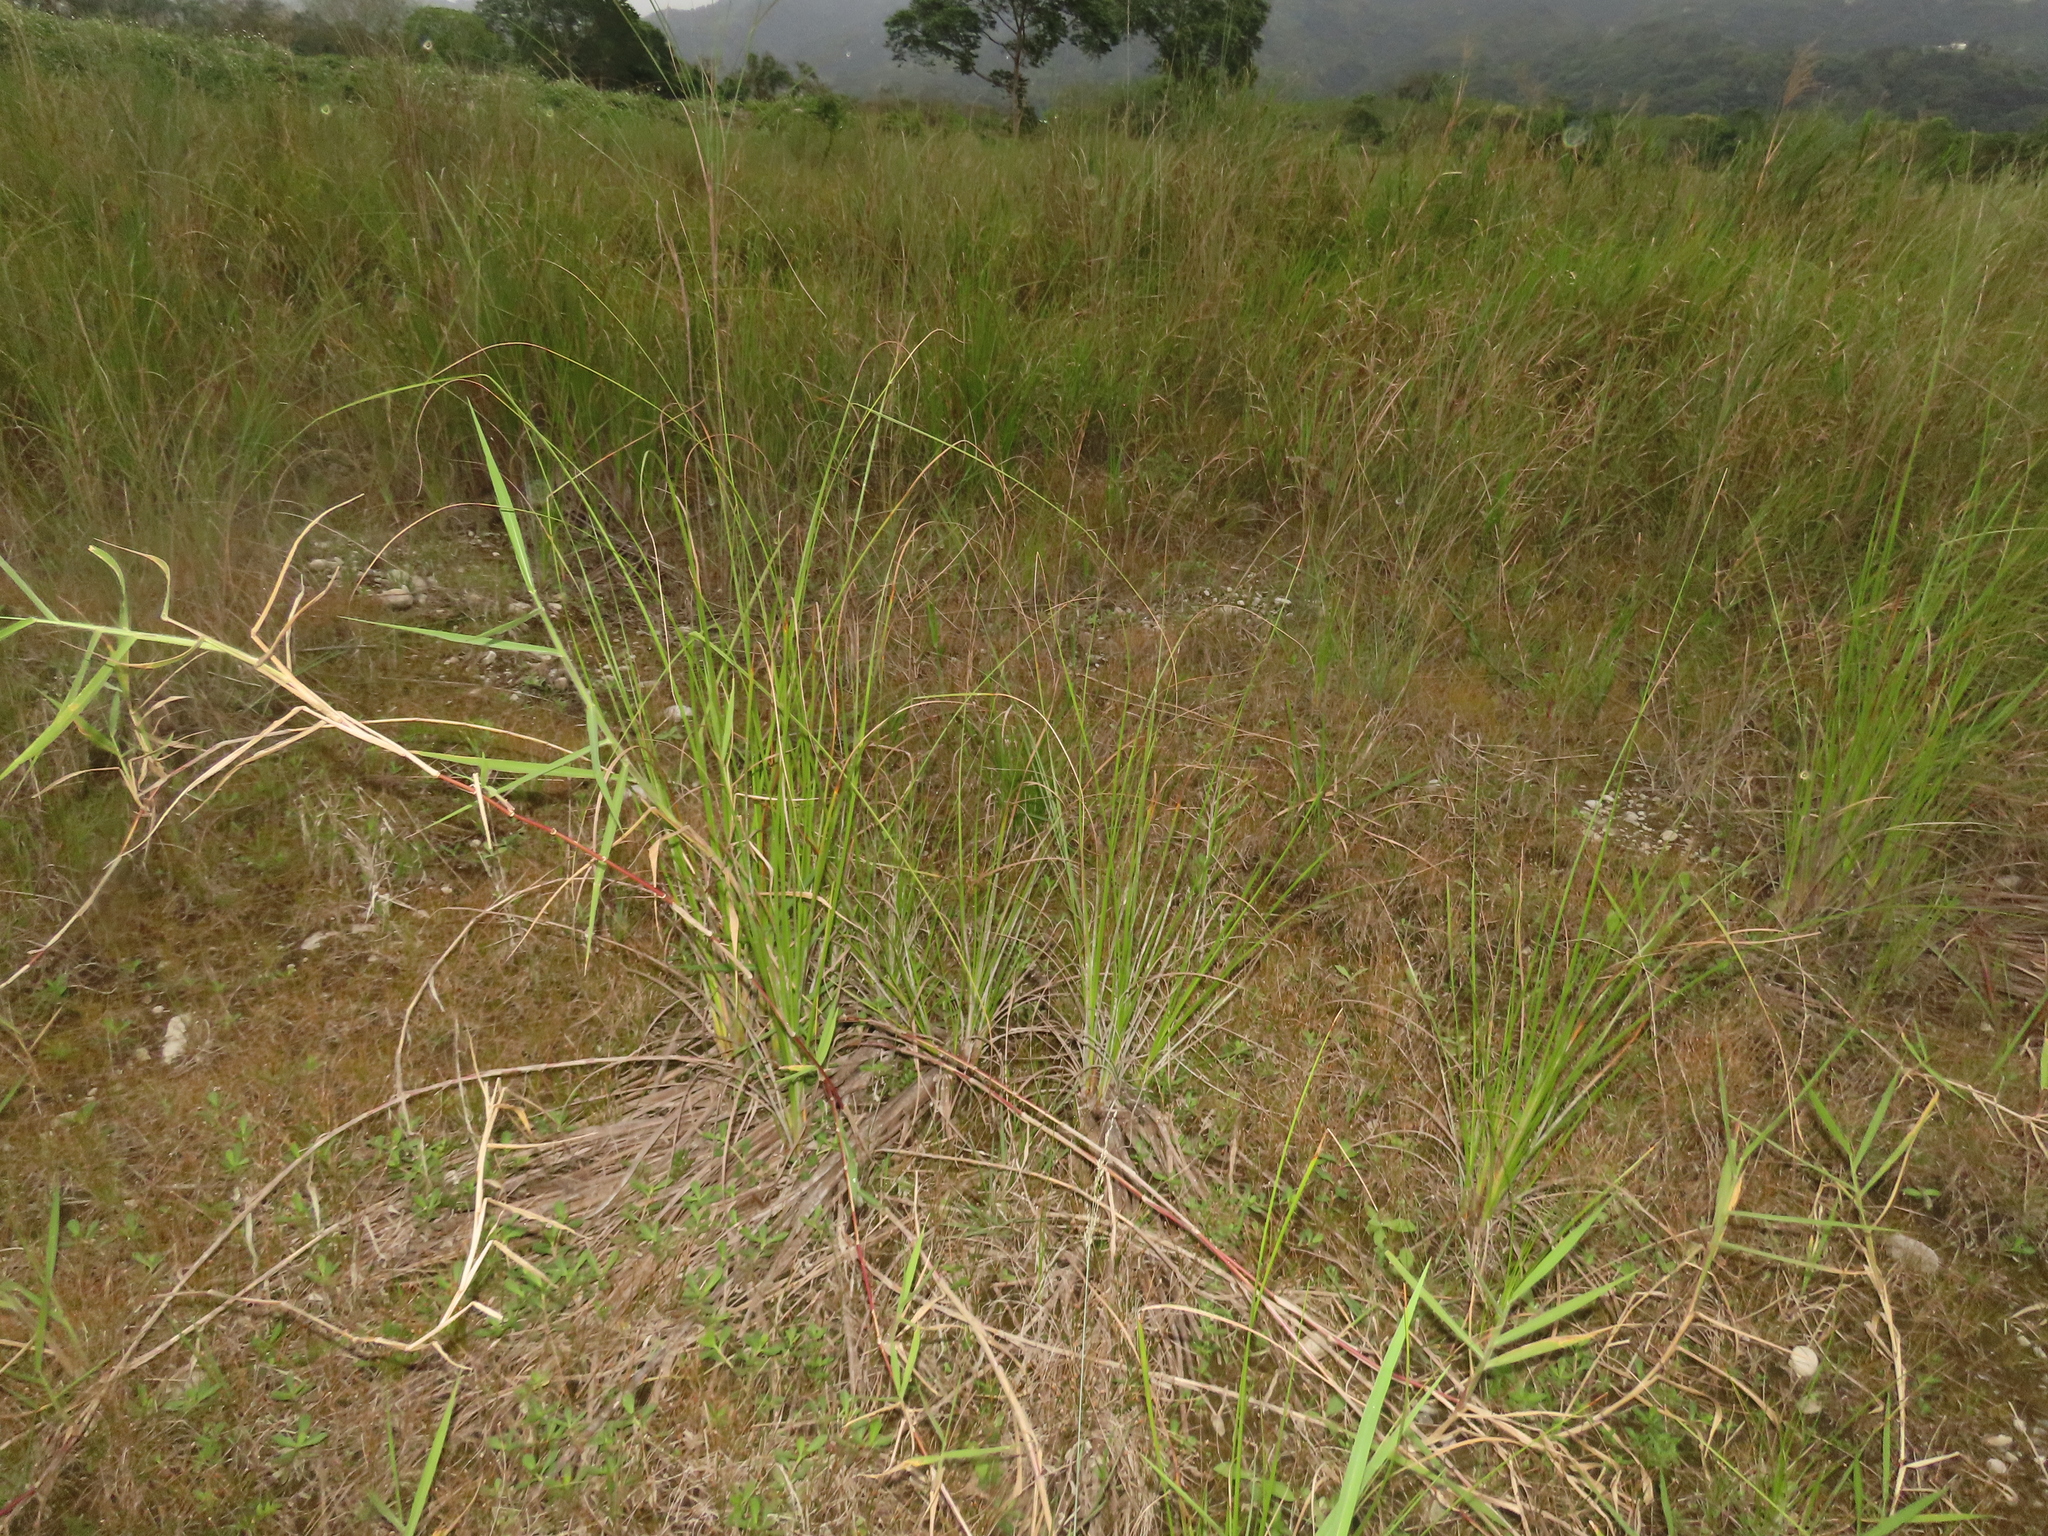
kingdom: Plantae
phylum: Tracheophyta
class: Liliopsida
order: Poales
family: Cyperaceae
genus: Cladium
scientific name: Cladium mariscus
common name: Great fen-sedge
